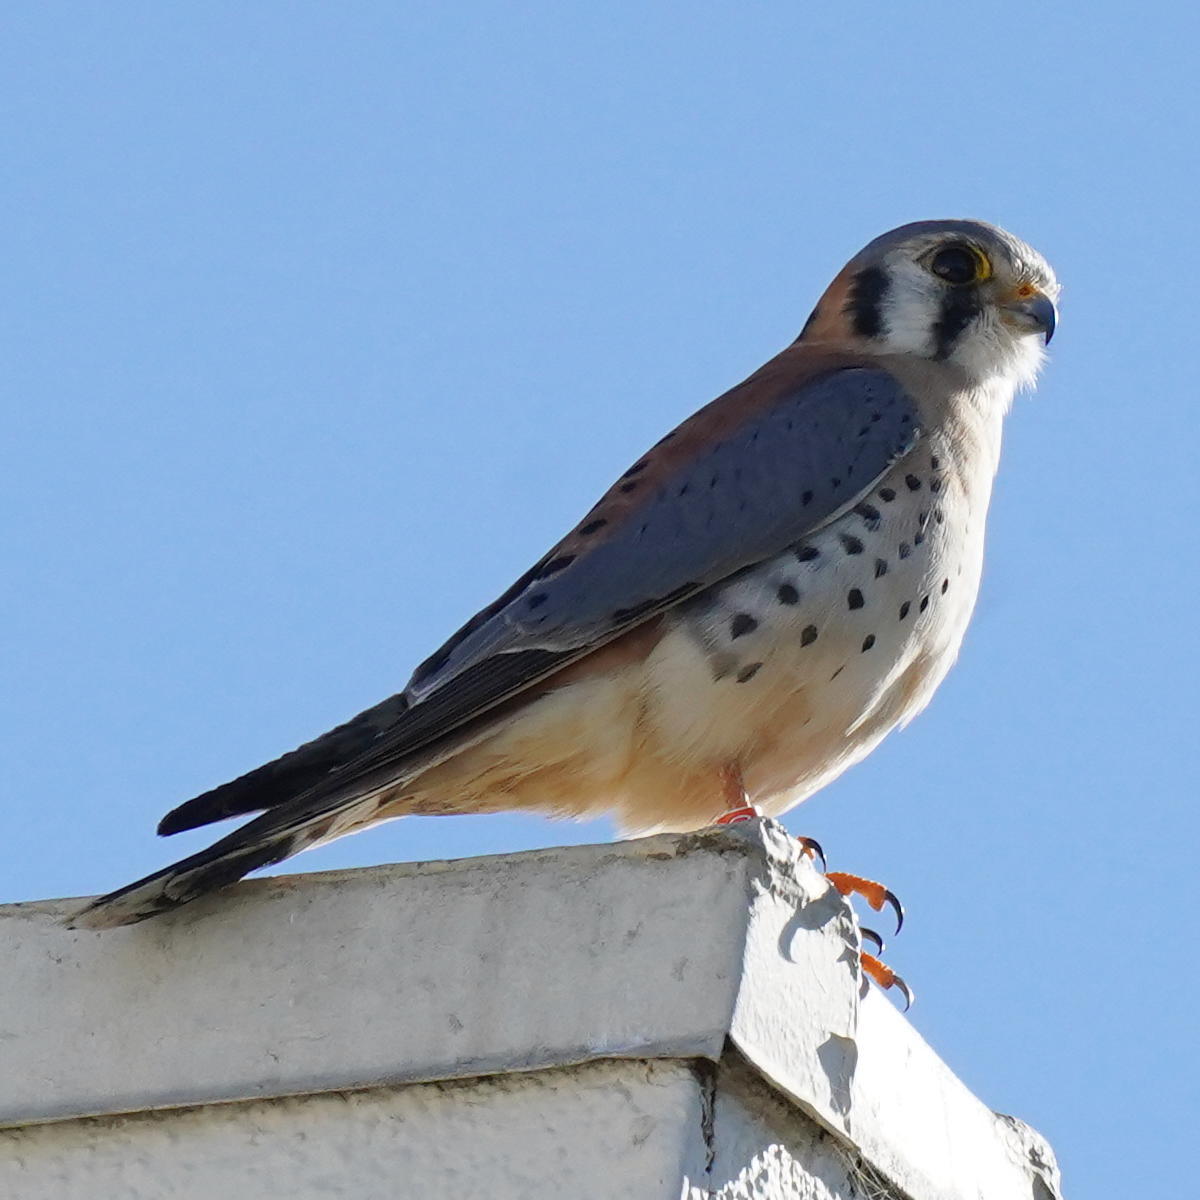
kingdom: Animalia
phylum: Chordata
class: Aves
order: Falconiformes
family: Falconidae
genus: Falco
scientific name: Falco sparverius
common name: American kestrel
